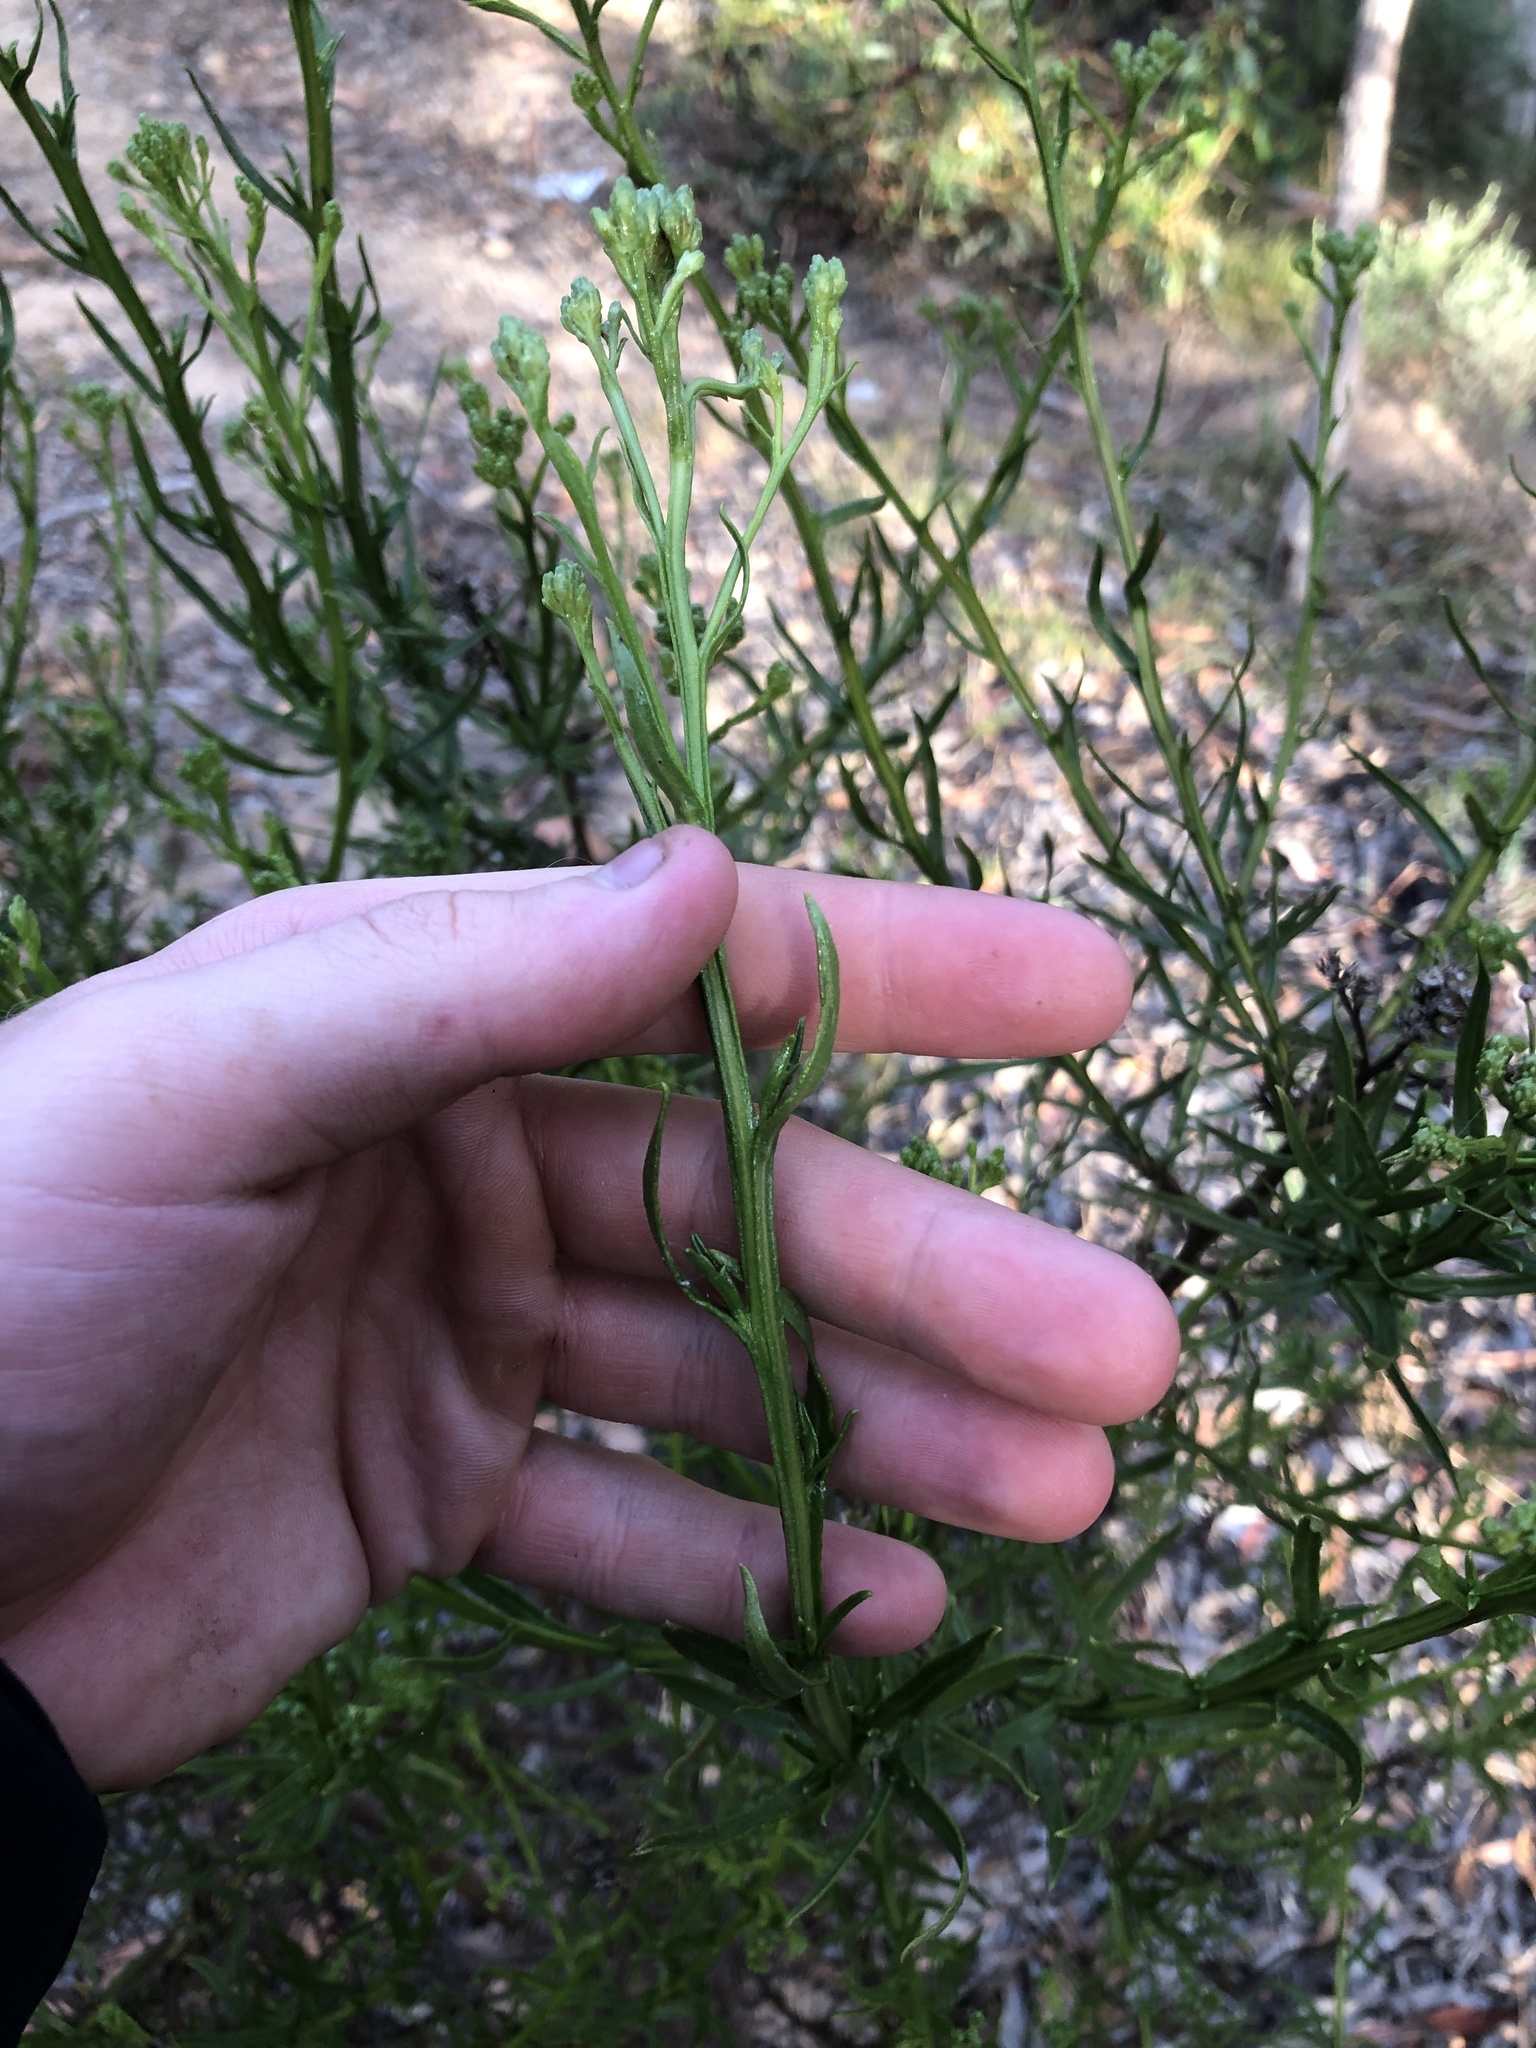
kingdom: Plantae
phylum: Tracheophyta
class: Magnoliopsida
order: Asterales
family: Asteraceae
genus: Ixodia
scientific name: Ixodia achillaeoides
